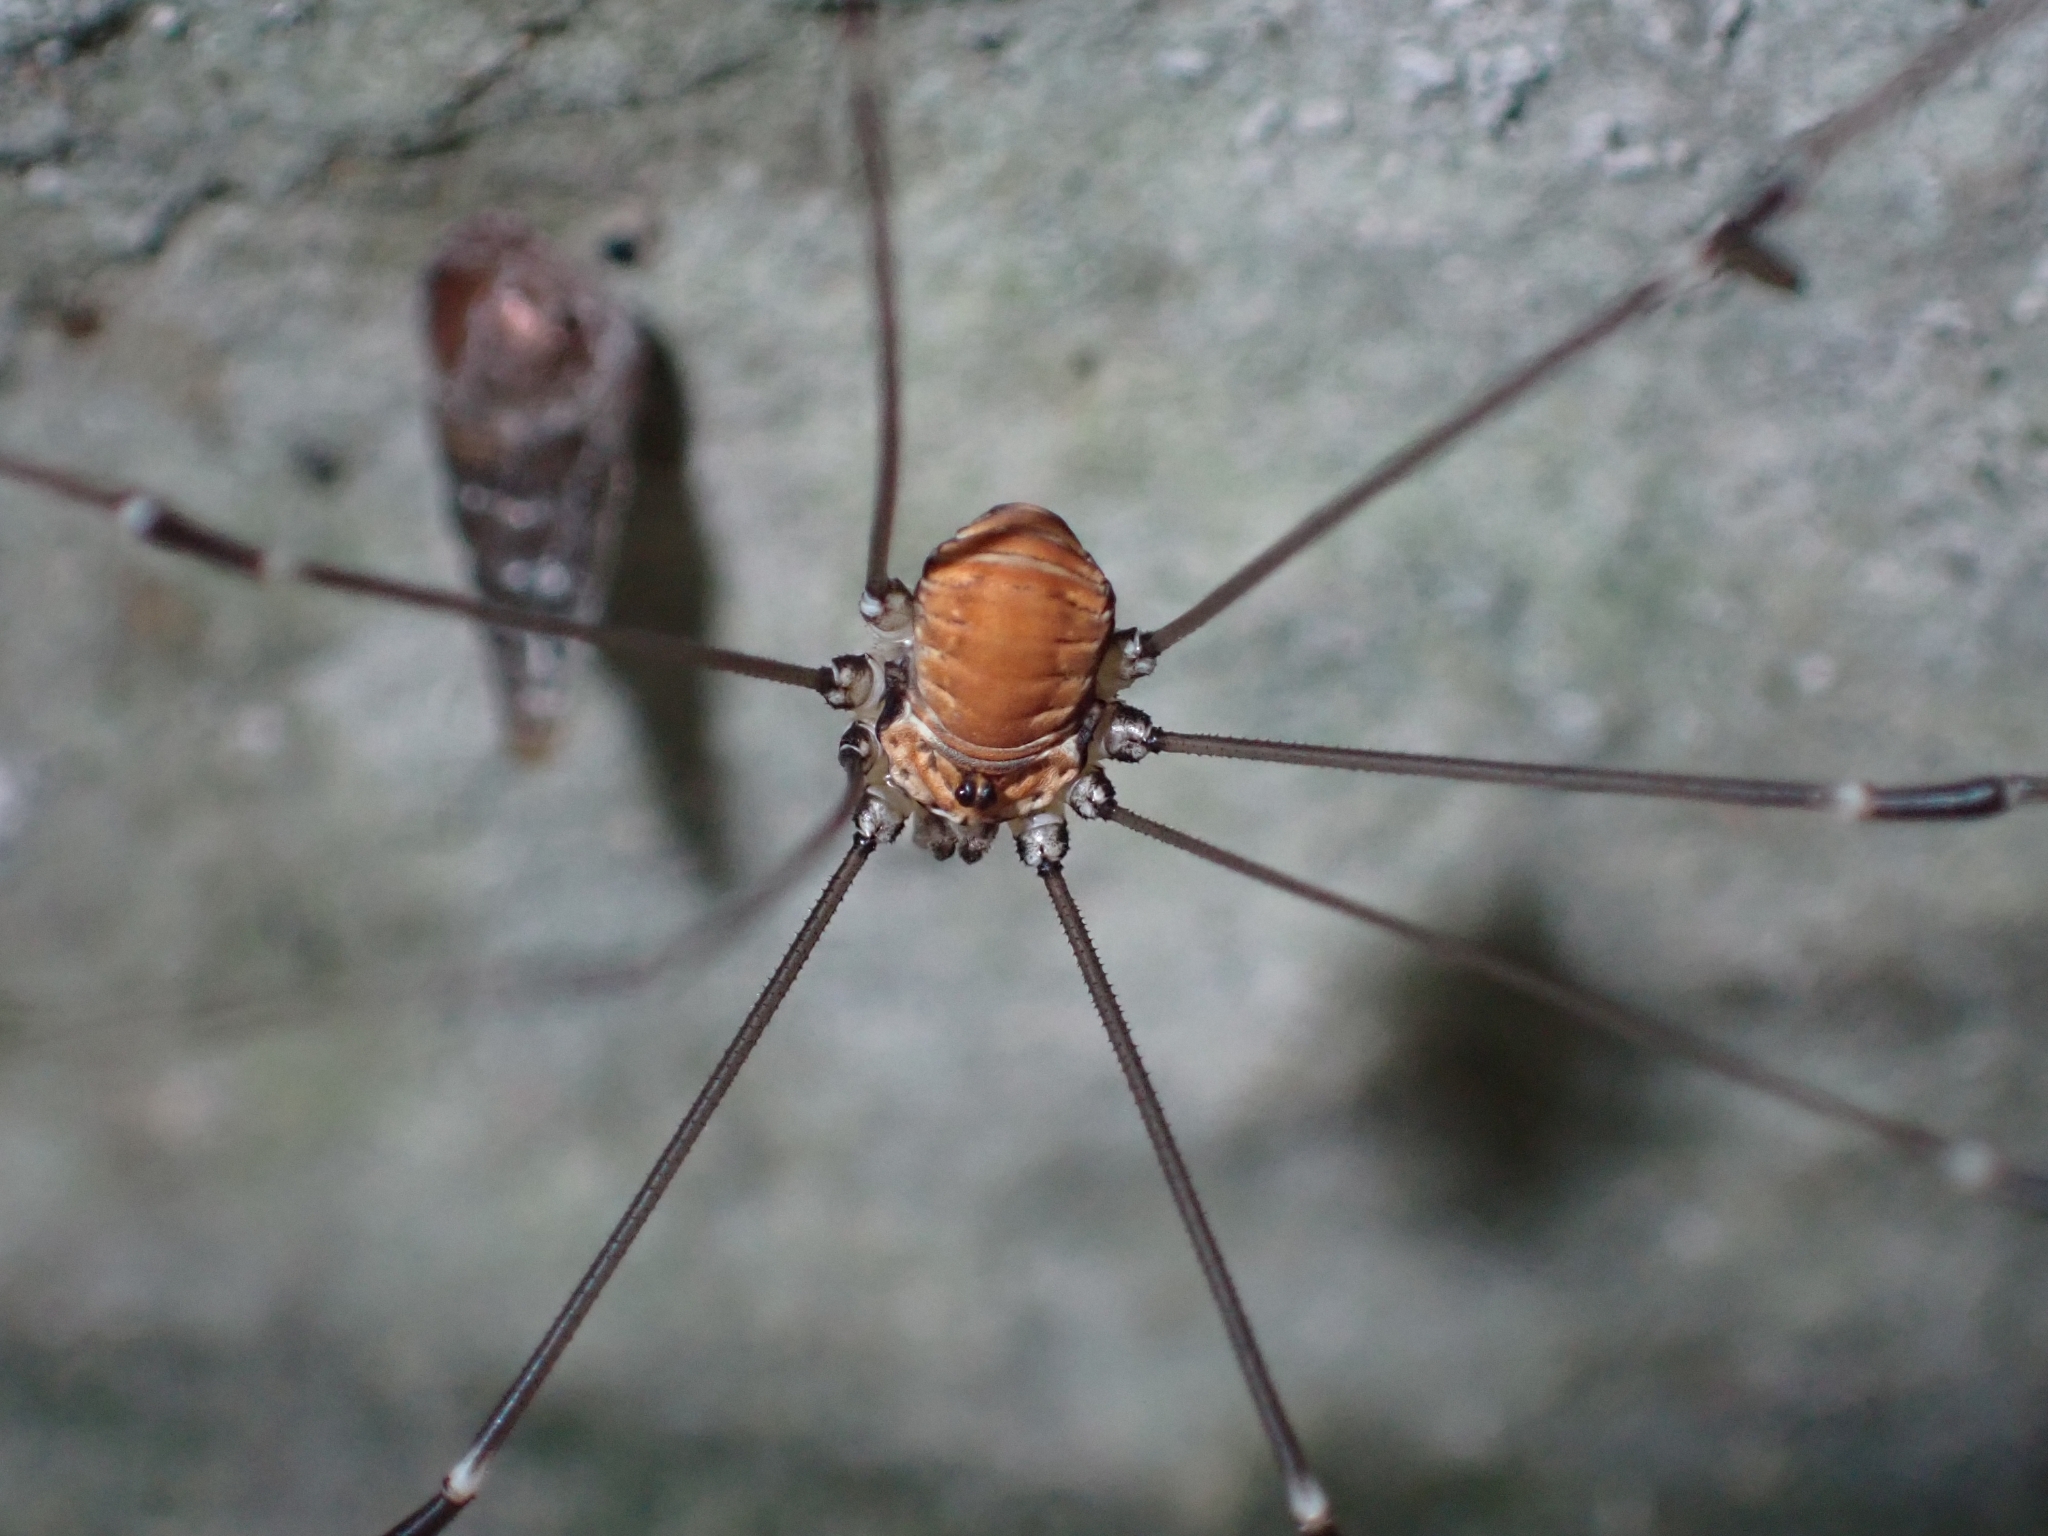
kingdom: Animalia
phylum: Arthropoda
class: Arachnida
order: Opiliones
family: Sclerosomatidae
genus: Leiobunum
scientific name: Leiobunum limbatum
